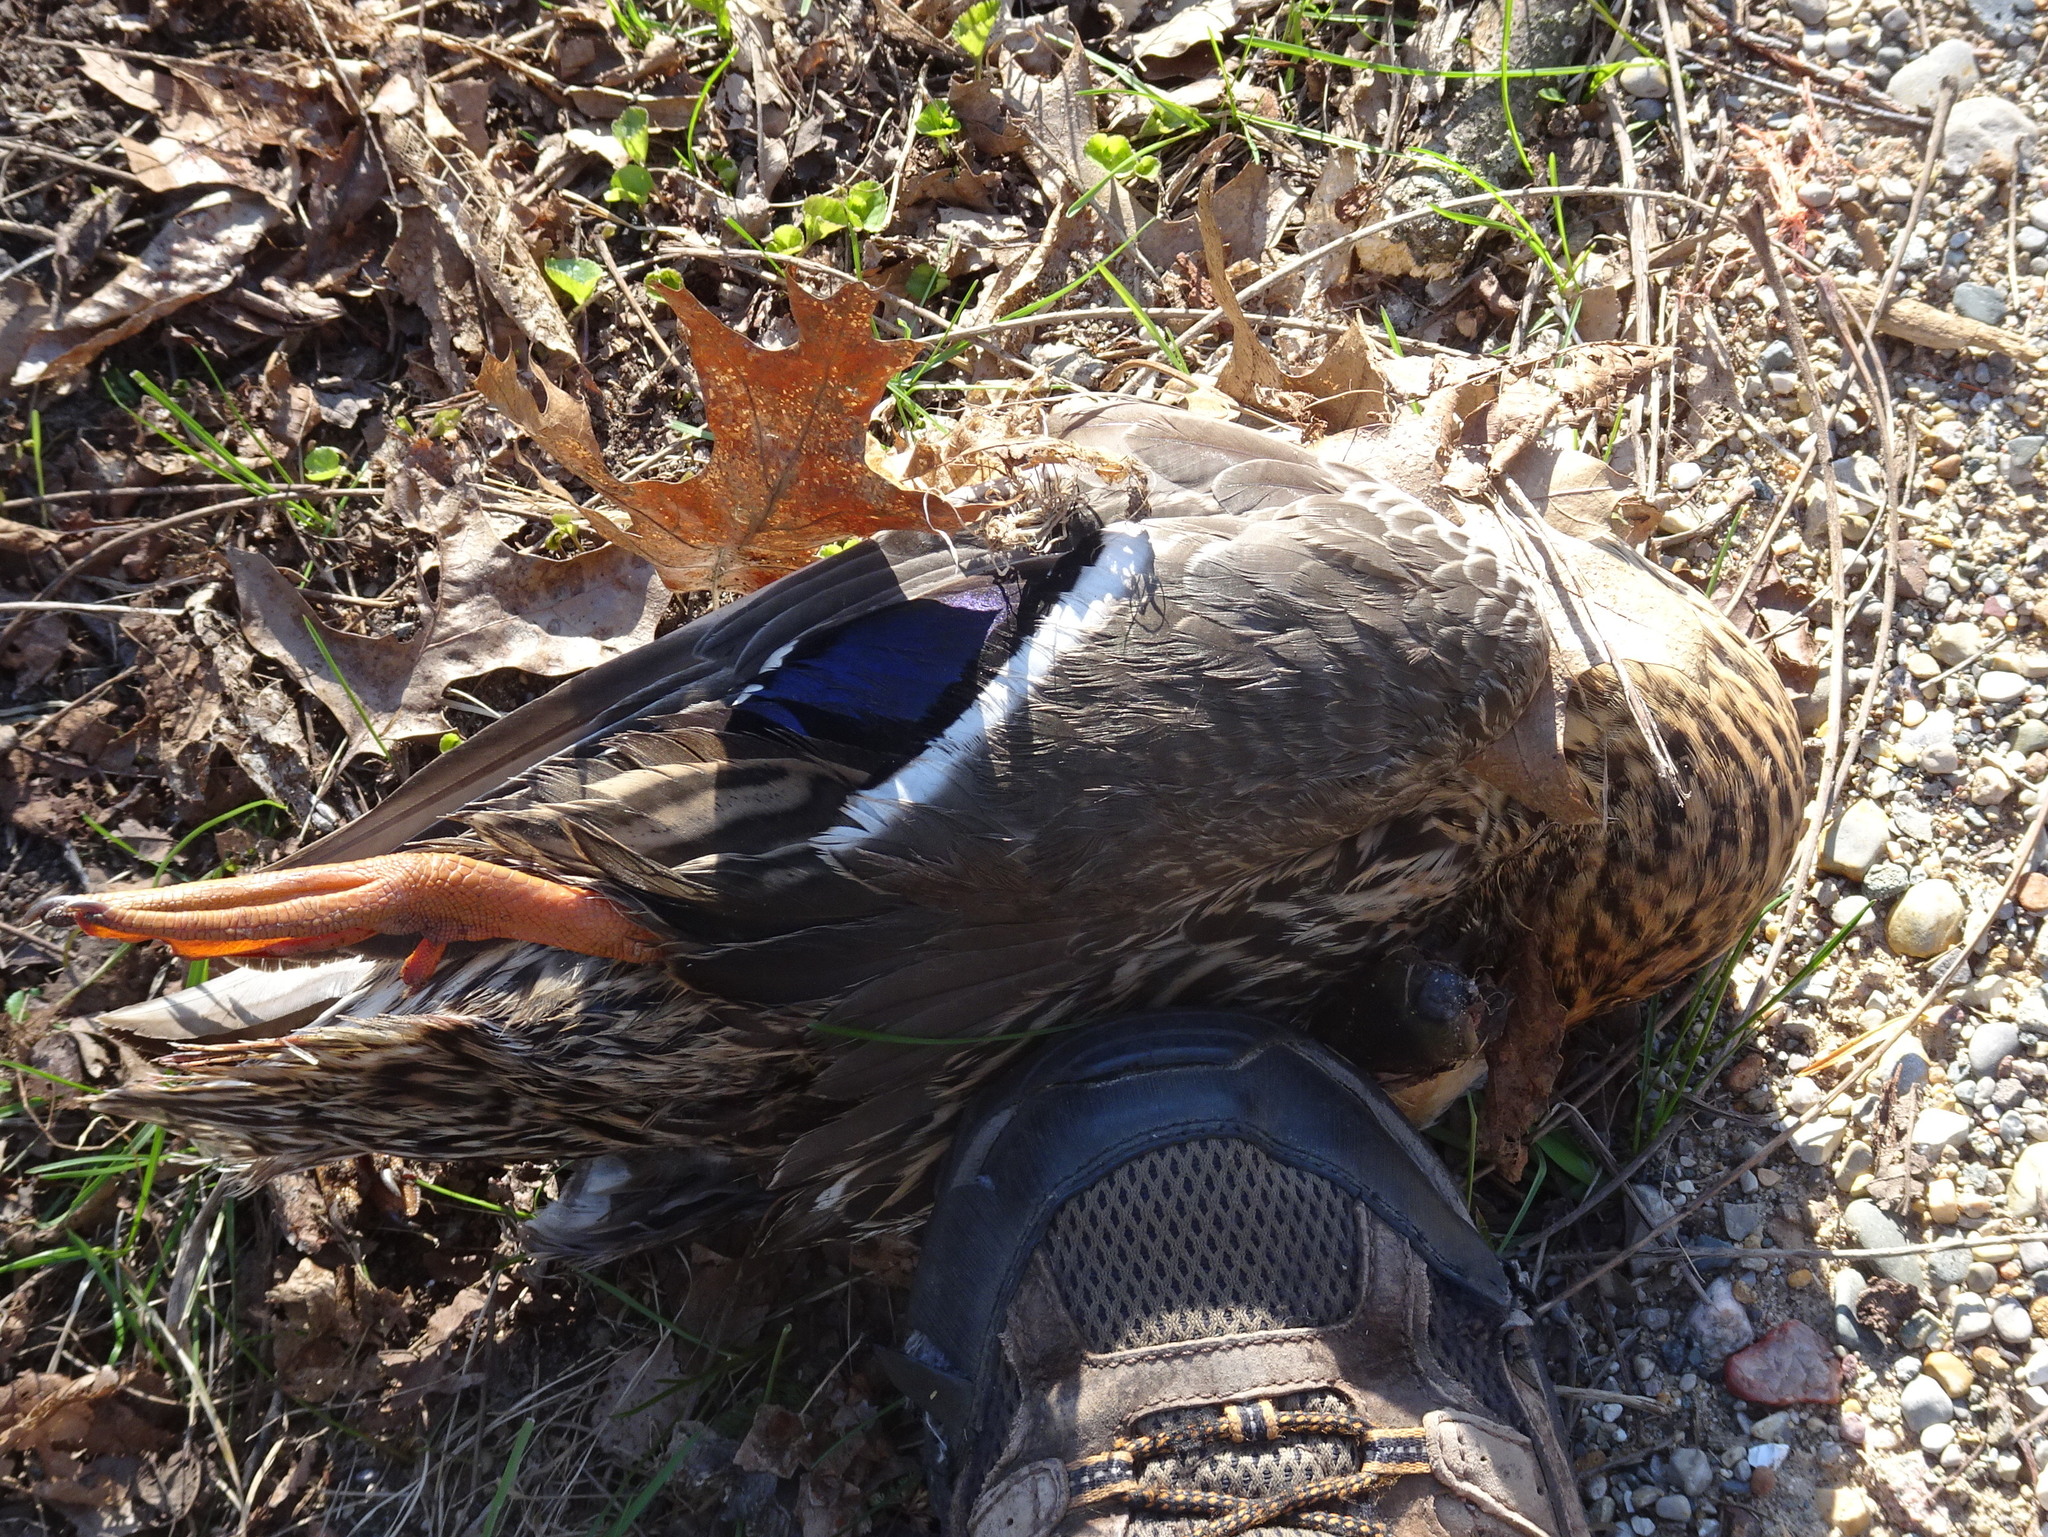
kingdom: Animalia
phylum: Chordata
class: Aves
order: Anseriformes
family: Anatidae
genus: Anas
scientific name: Anas platyrhynchos
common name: Mallard
